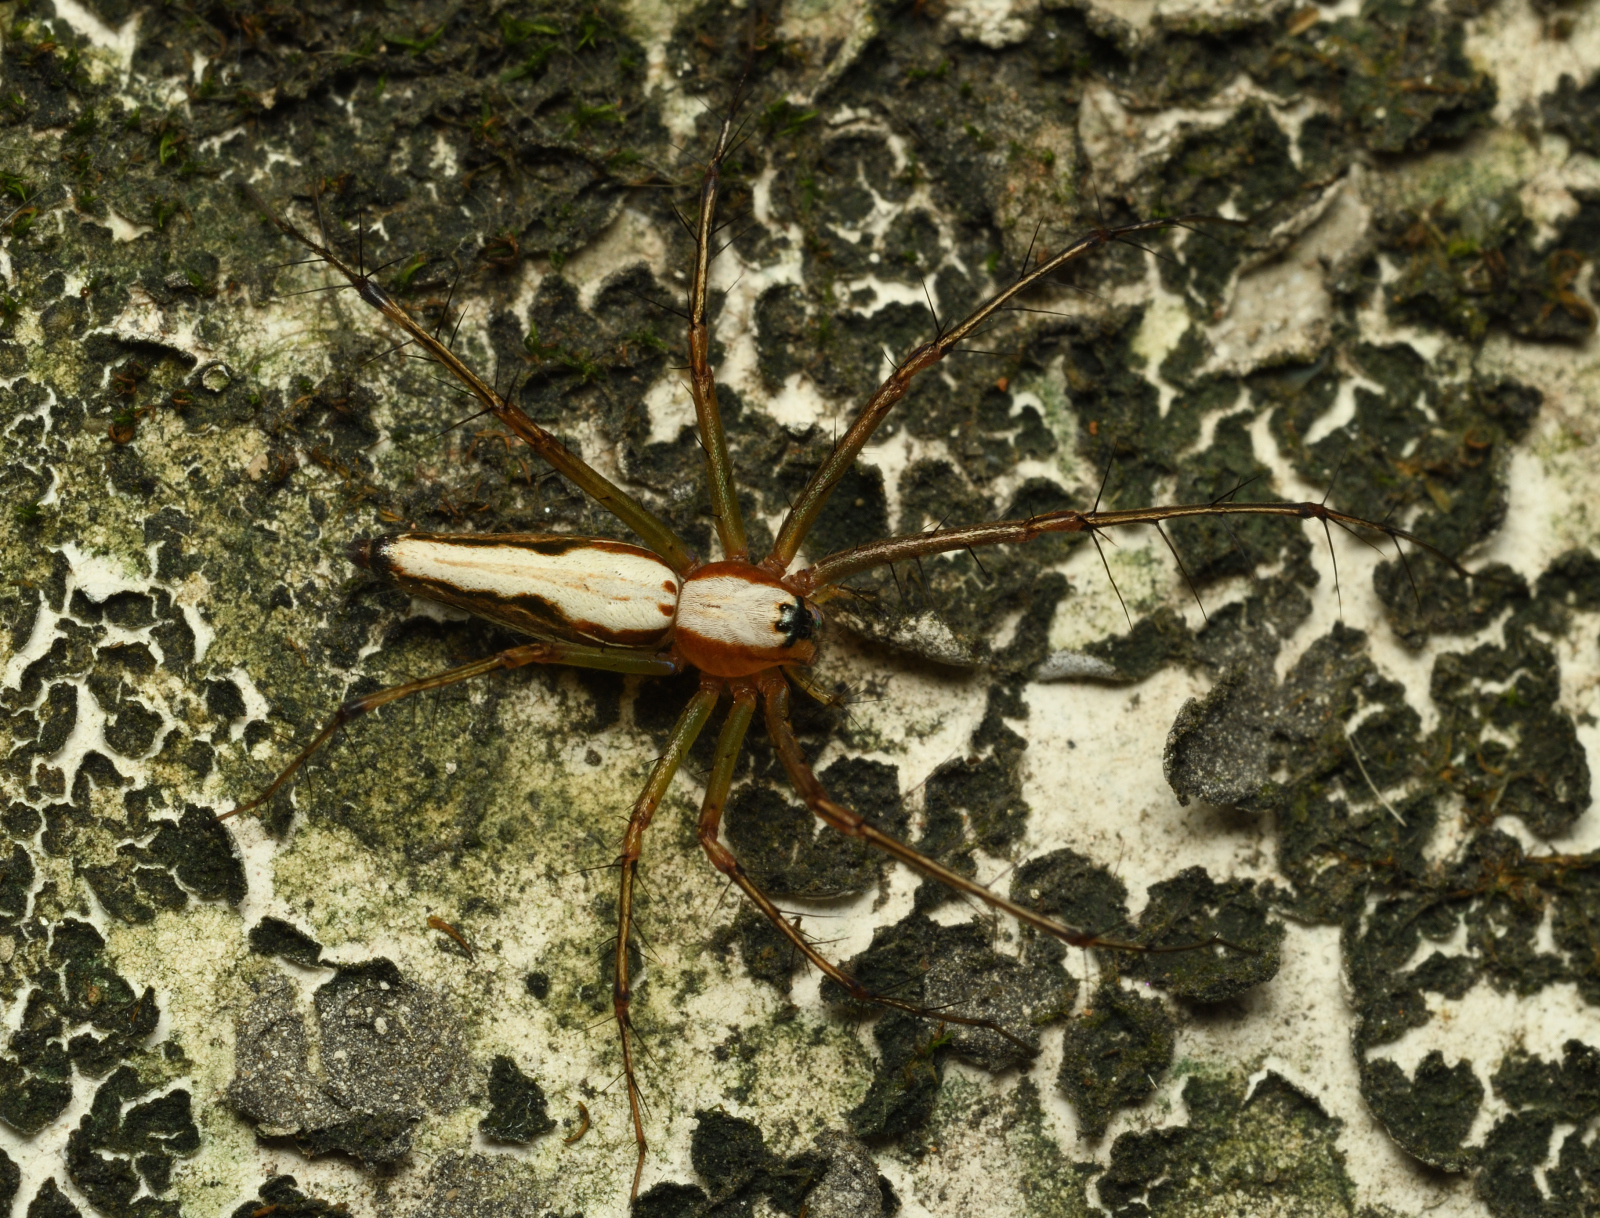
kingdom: Animalia
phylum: Arthropoda
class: Arachnida
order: Araneae
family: Oxyopidae
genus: Oxyopes
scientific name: Oxyopes shweta
